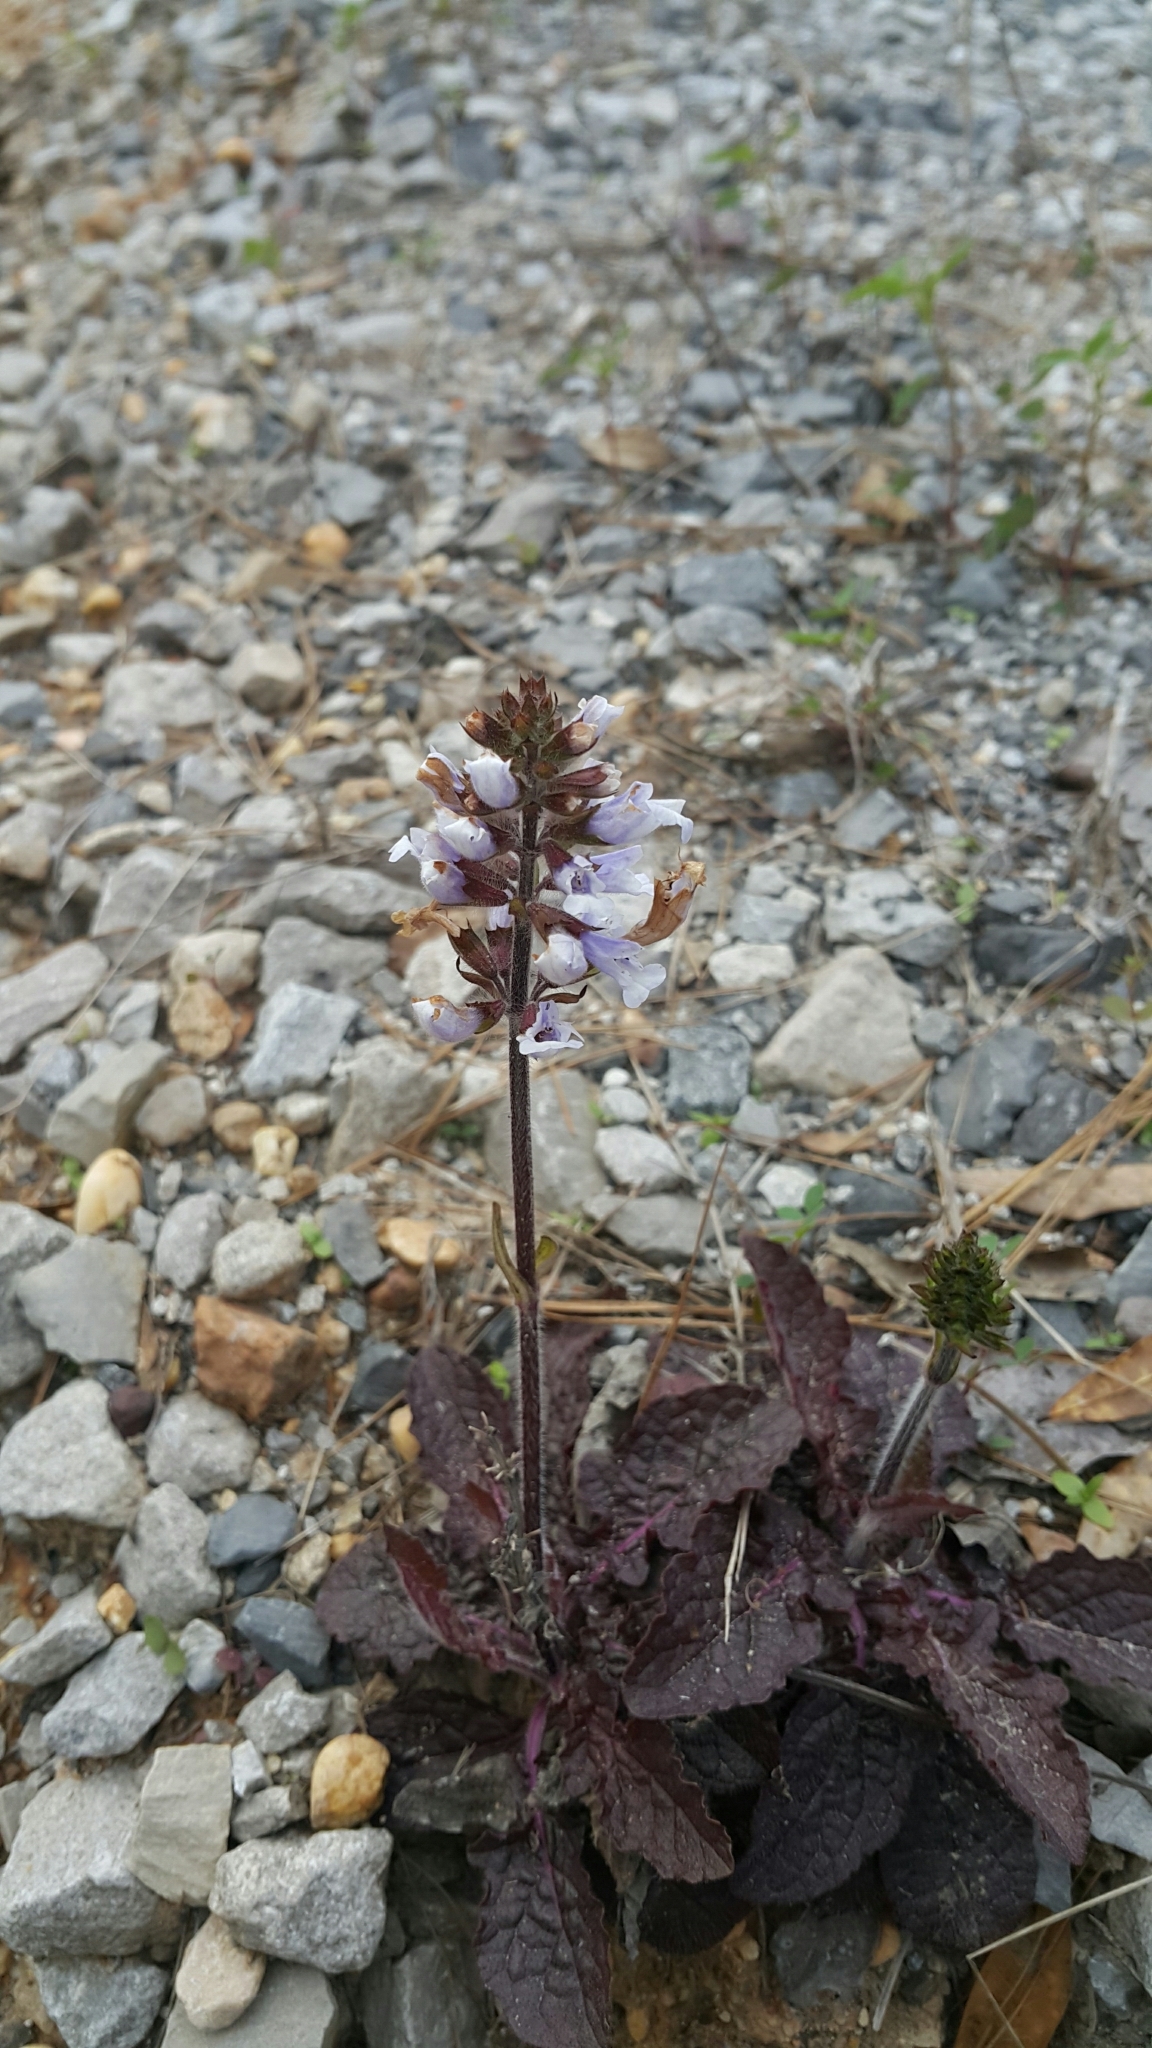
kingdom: Plantae
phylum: Tracheophyta
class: Magnoliopsida
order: Lamiales
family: Lamiaceae
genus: Salvia
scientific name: Salvia lyrata
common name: Cancerweed
